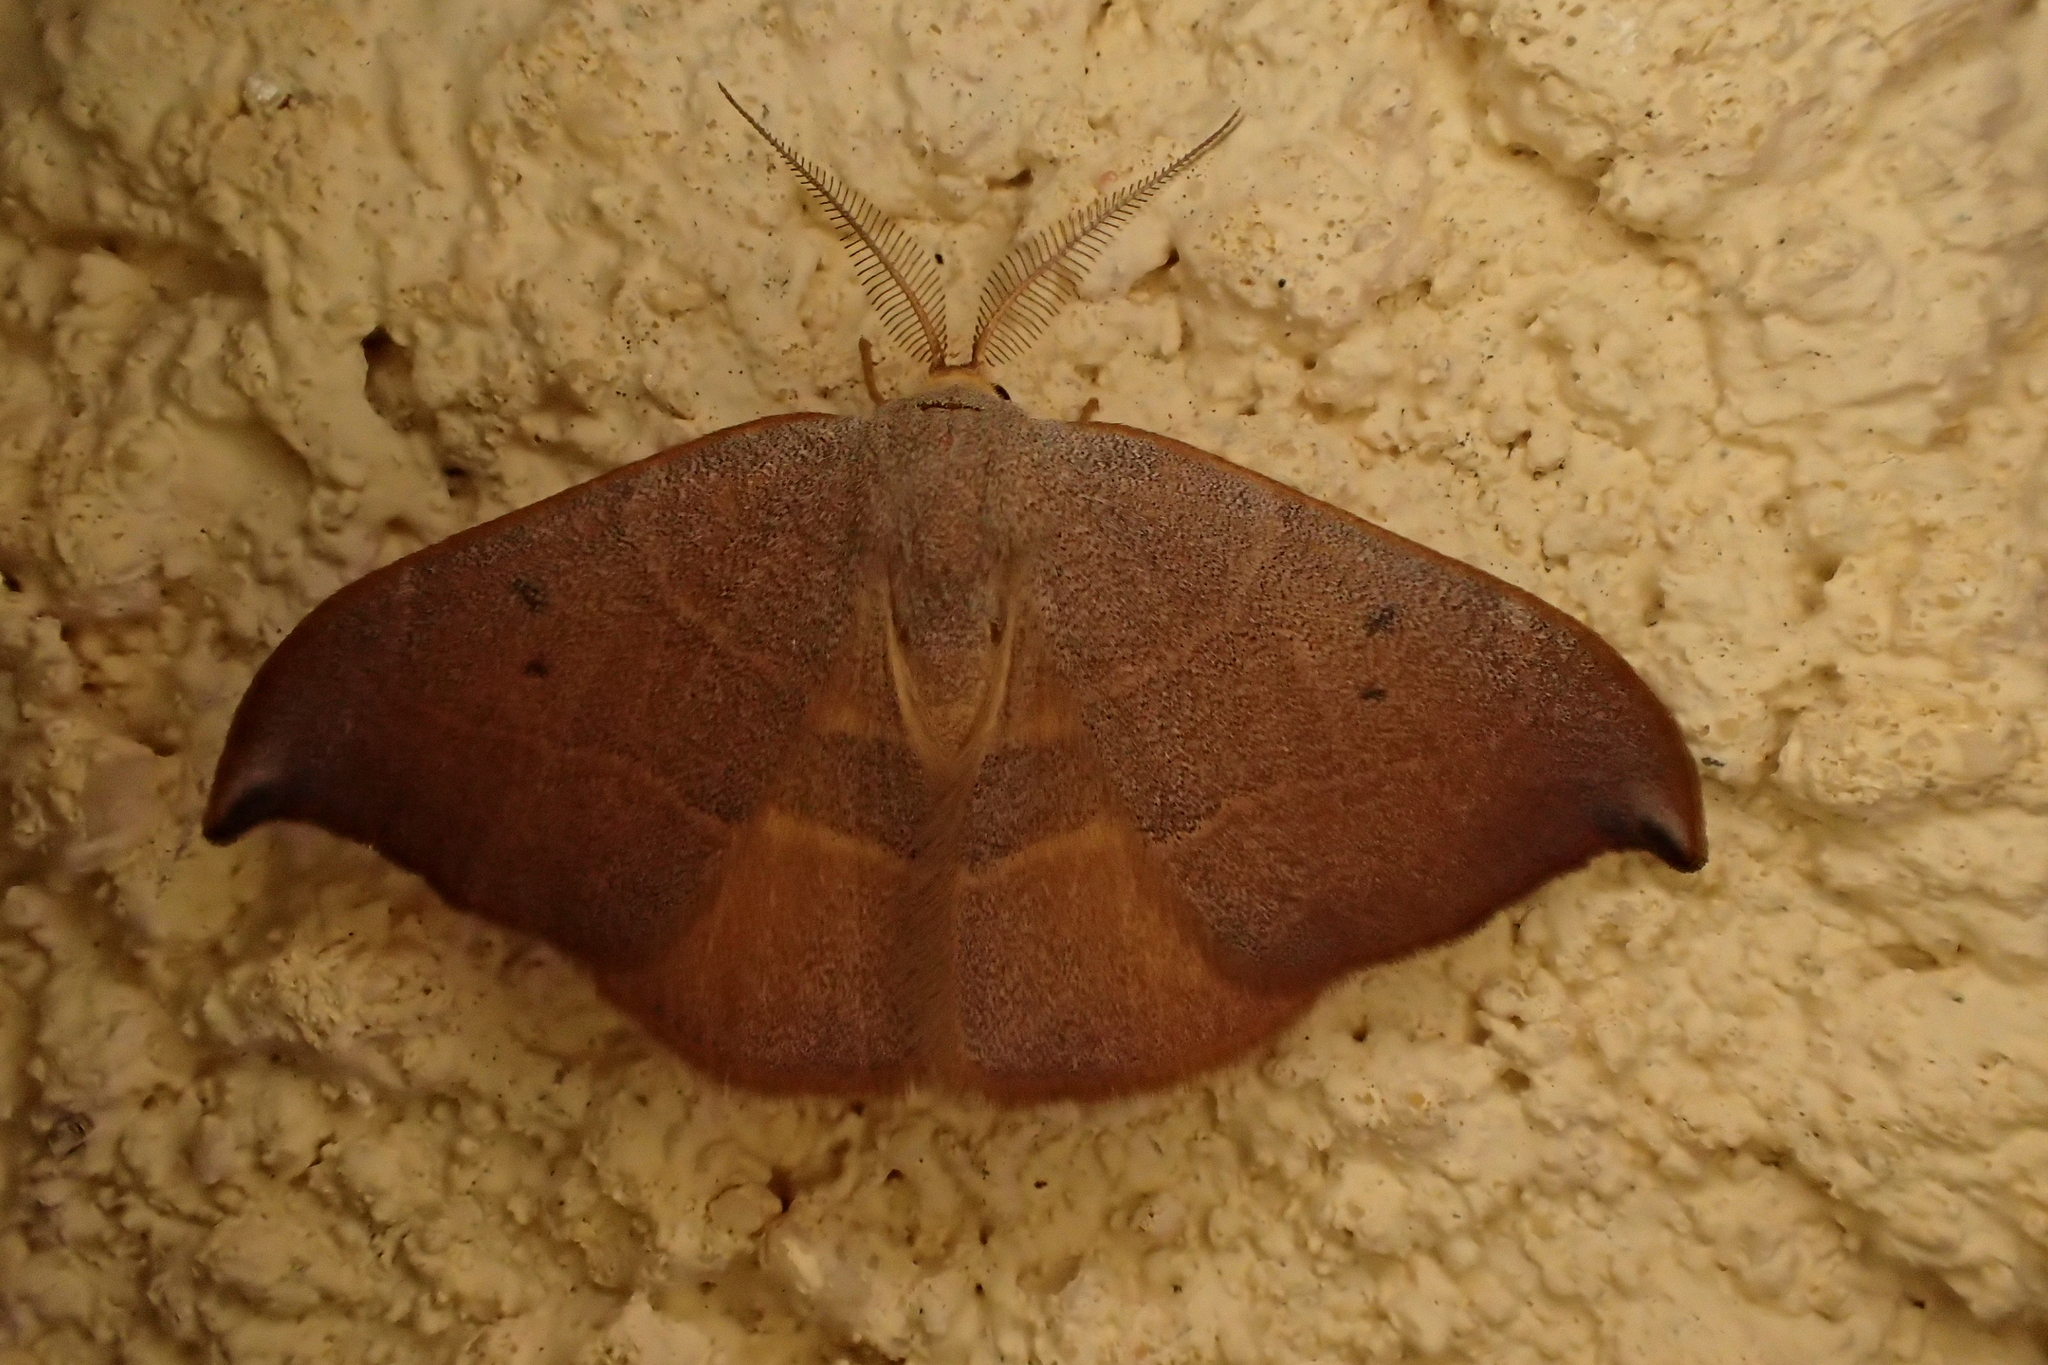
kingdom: Animalia
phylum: Arthropoda
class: Insecta
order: Lepidoptera
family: Drepanidae
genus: Watsonalla
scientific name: Watsonalla uncinula
